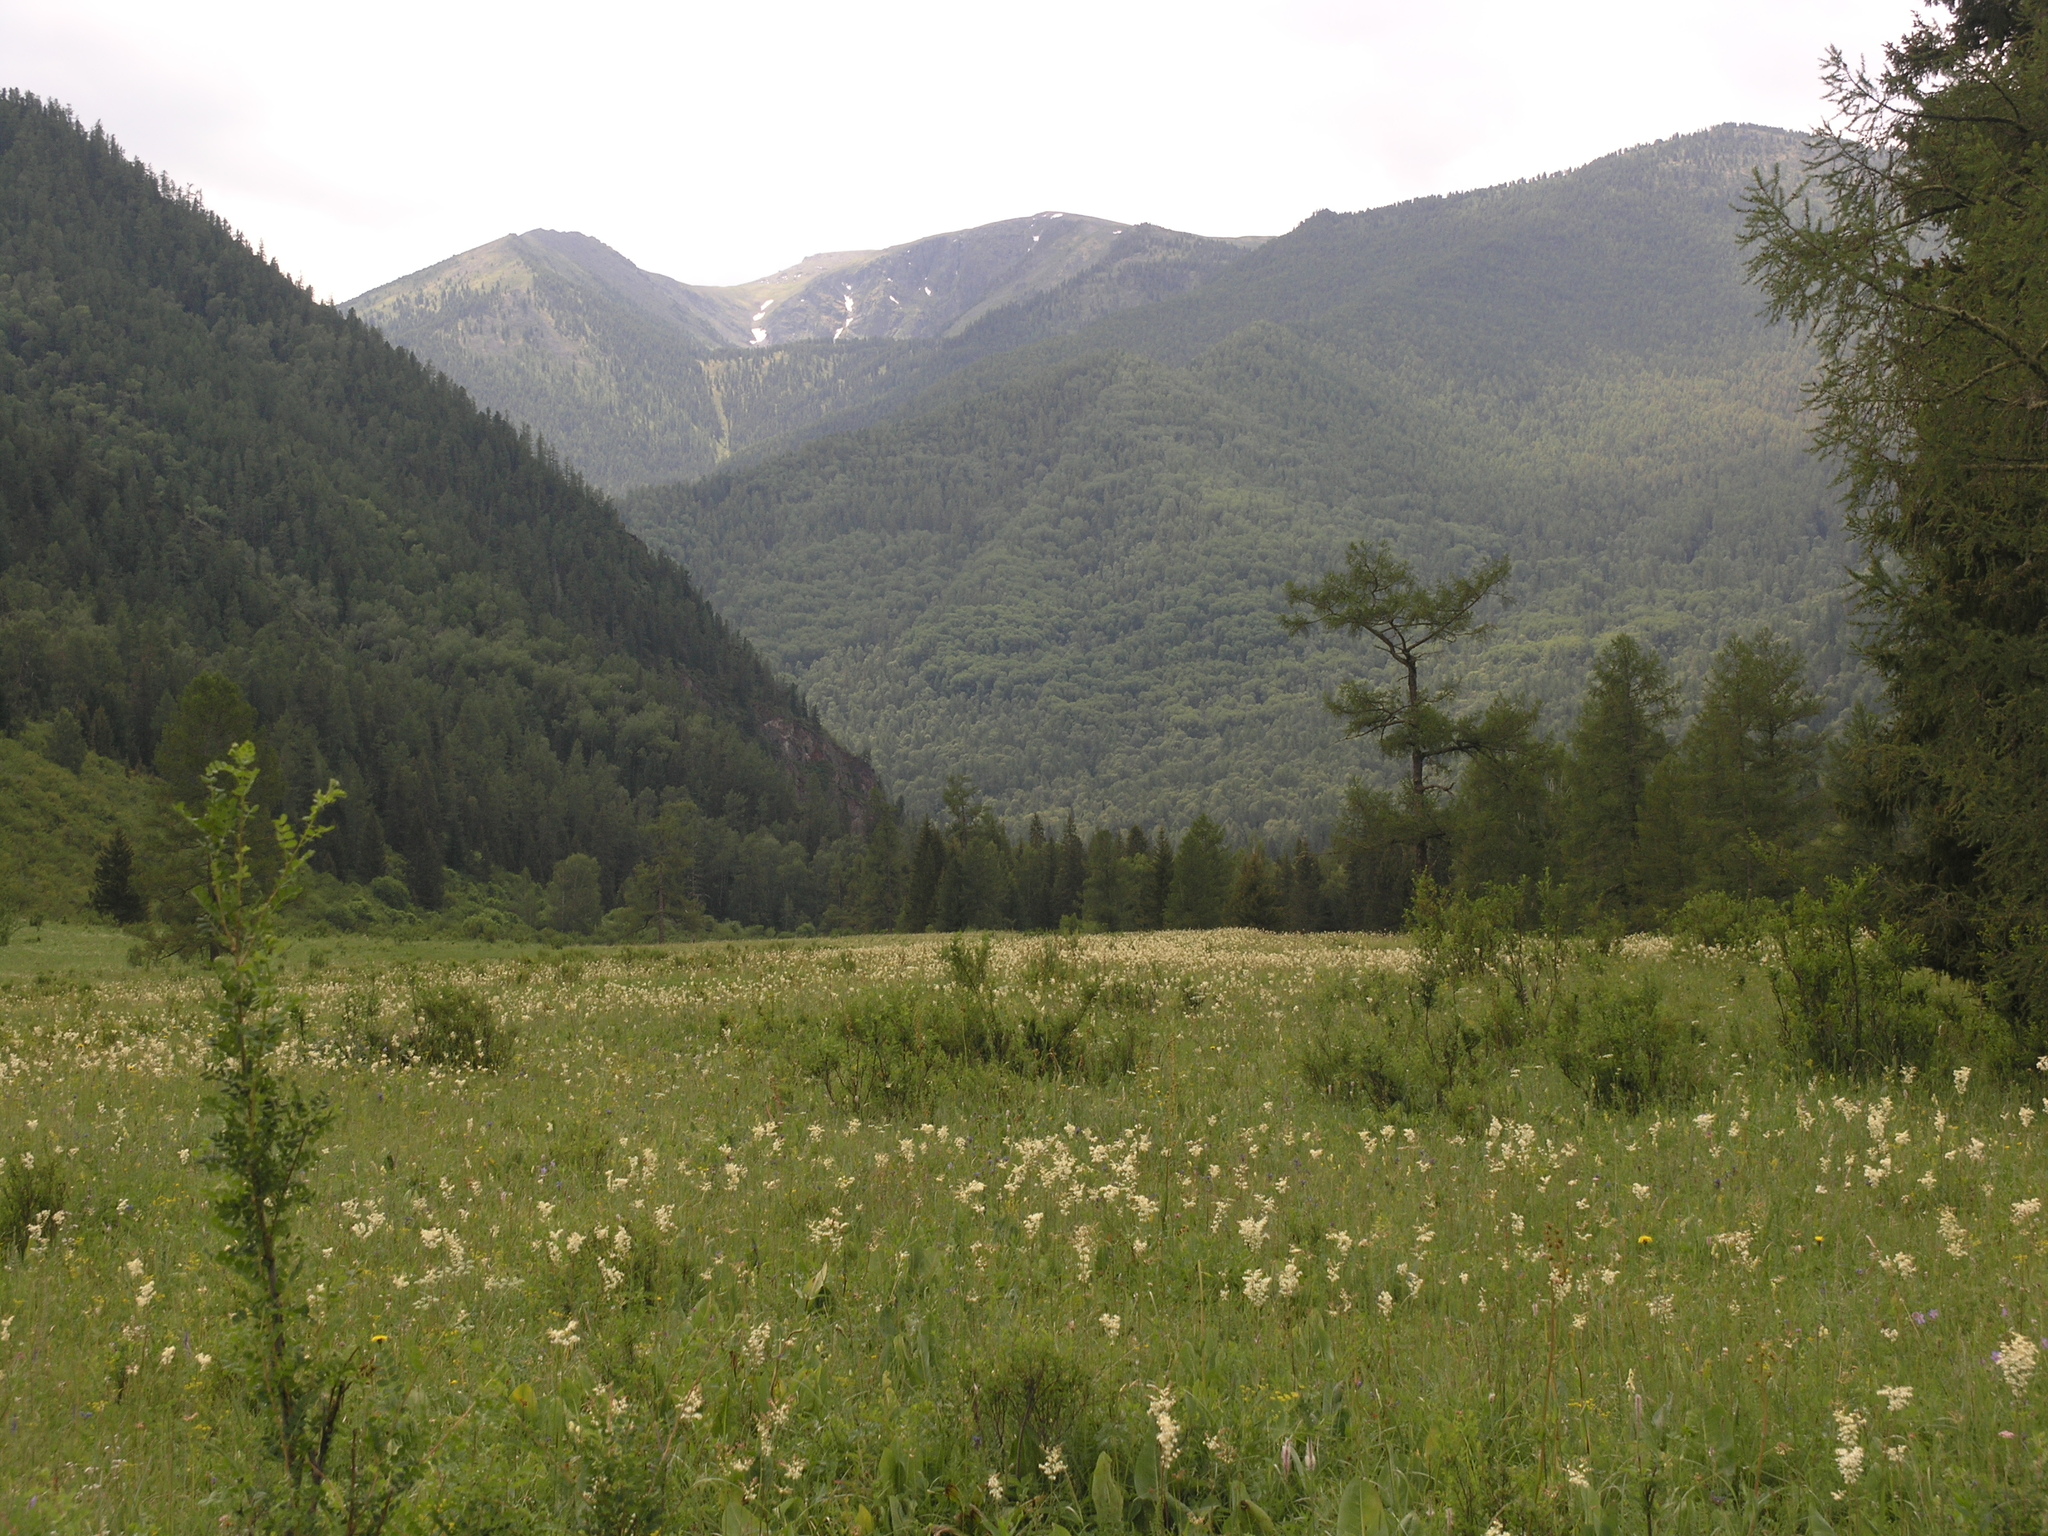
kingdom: Plantae
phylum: Tracheophyta
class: Pinopsida
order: Pinales
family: Pinaceae
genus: Larix
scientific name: Larix sibirica
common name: Siberian larch
